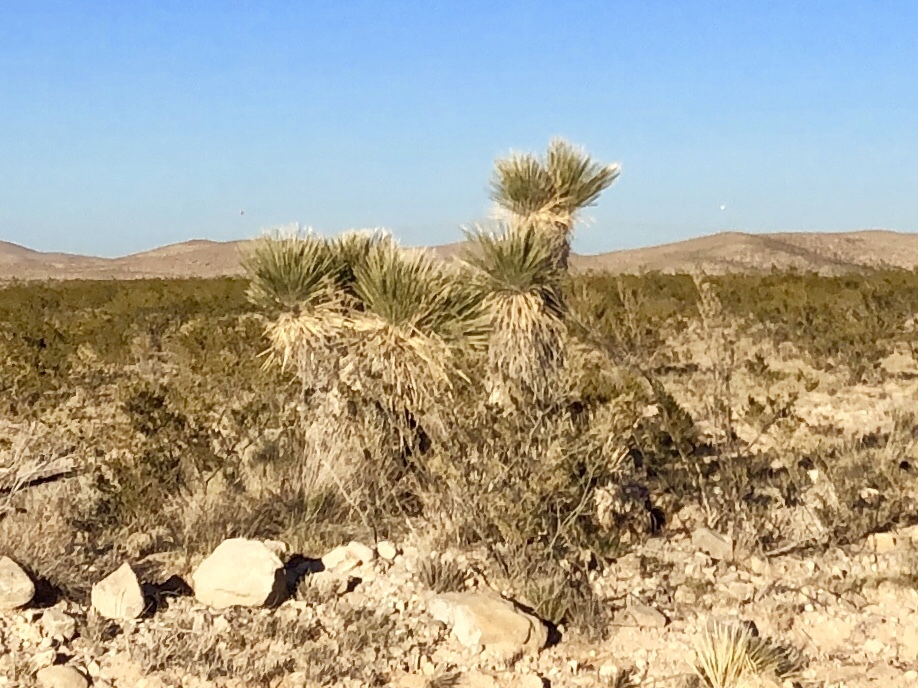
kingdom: Plantae
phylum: Tracheophyta
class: Liliopsida
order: Asparagales
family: Asparagaceae
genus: Yucca
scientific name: Yucca elata
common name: Palmella
